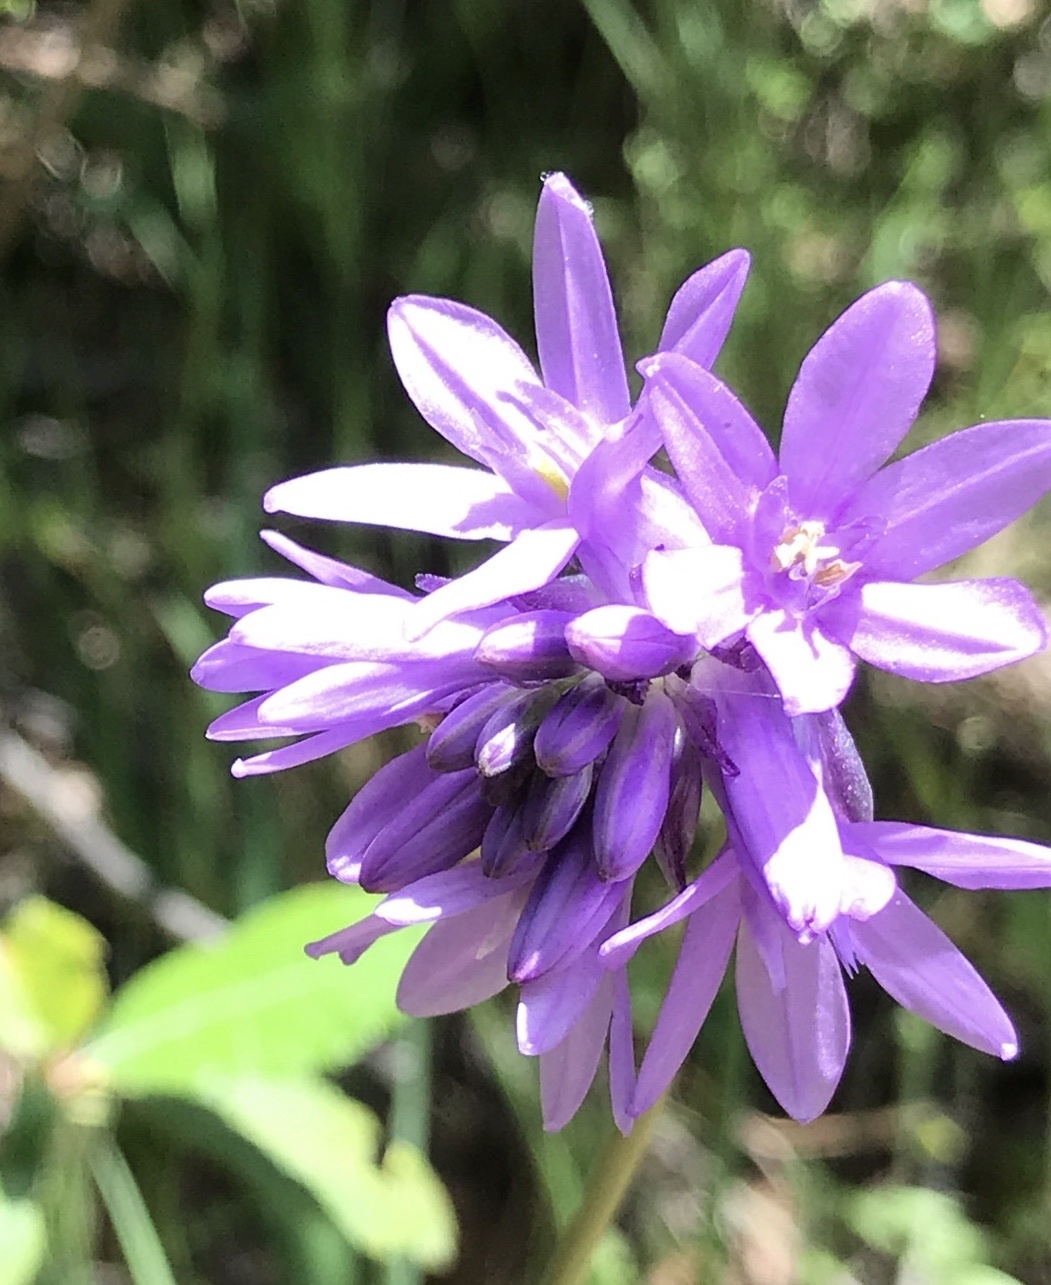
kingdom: Plantae
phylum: Tracheophyta
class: Liliopsida
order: Asparagales
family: Asparagaceae
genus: Dichelostemma
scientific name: Dichelostemma congestum
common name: Fork-tooth ookow
